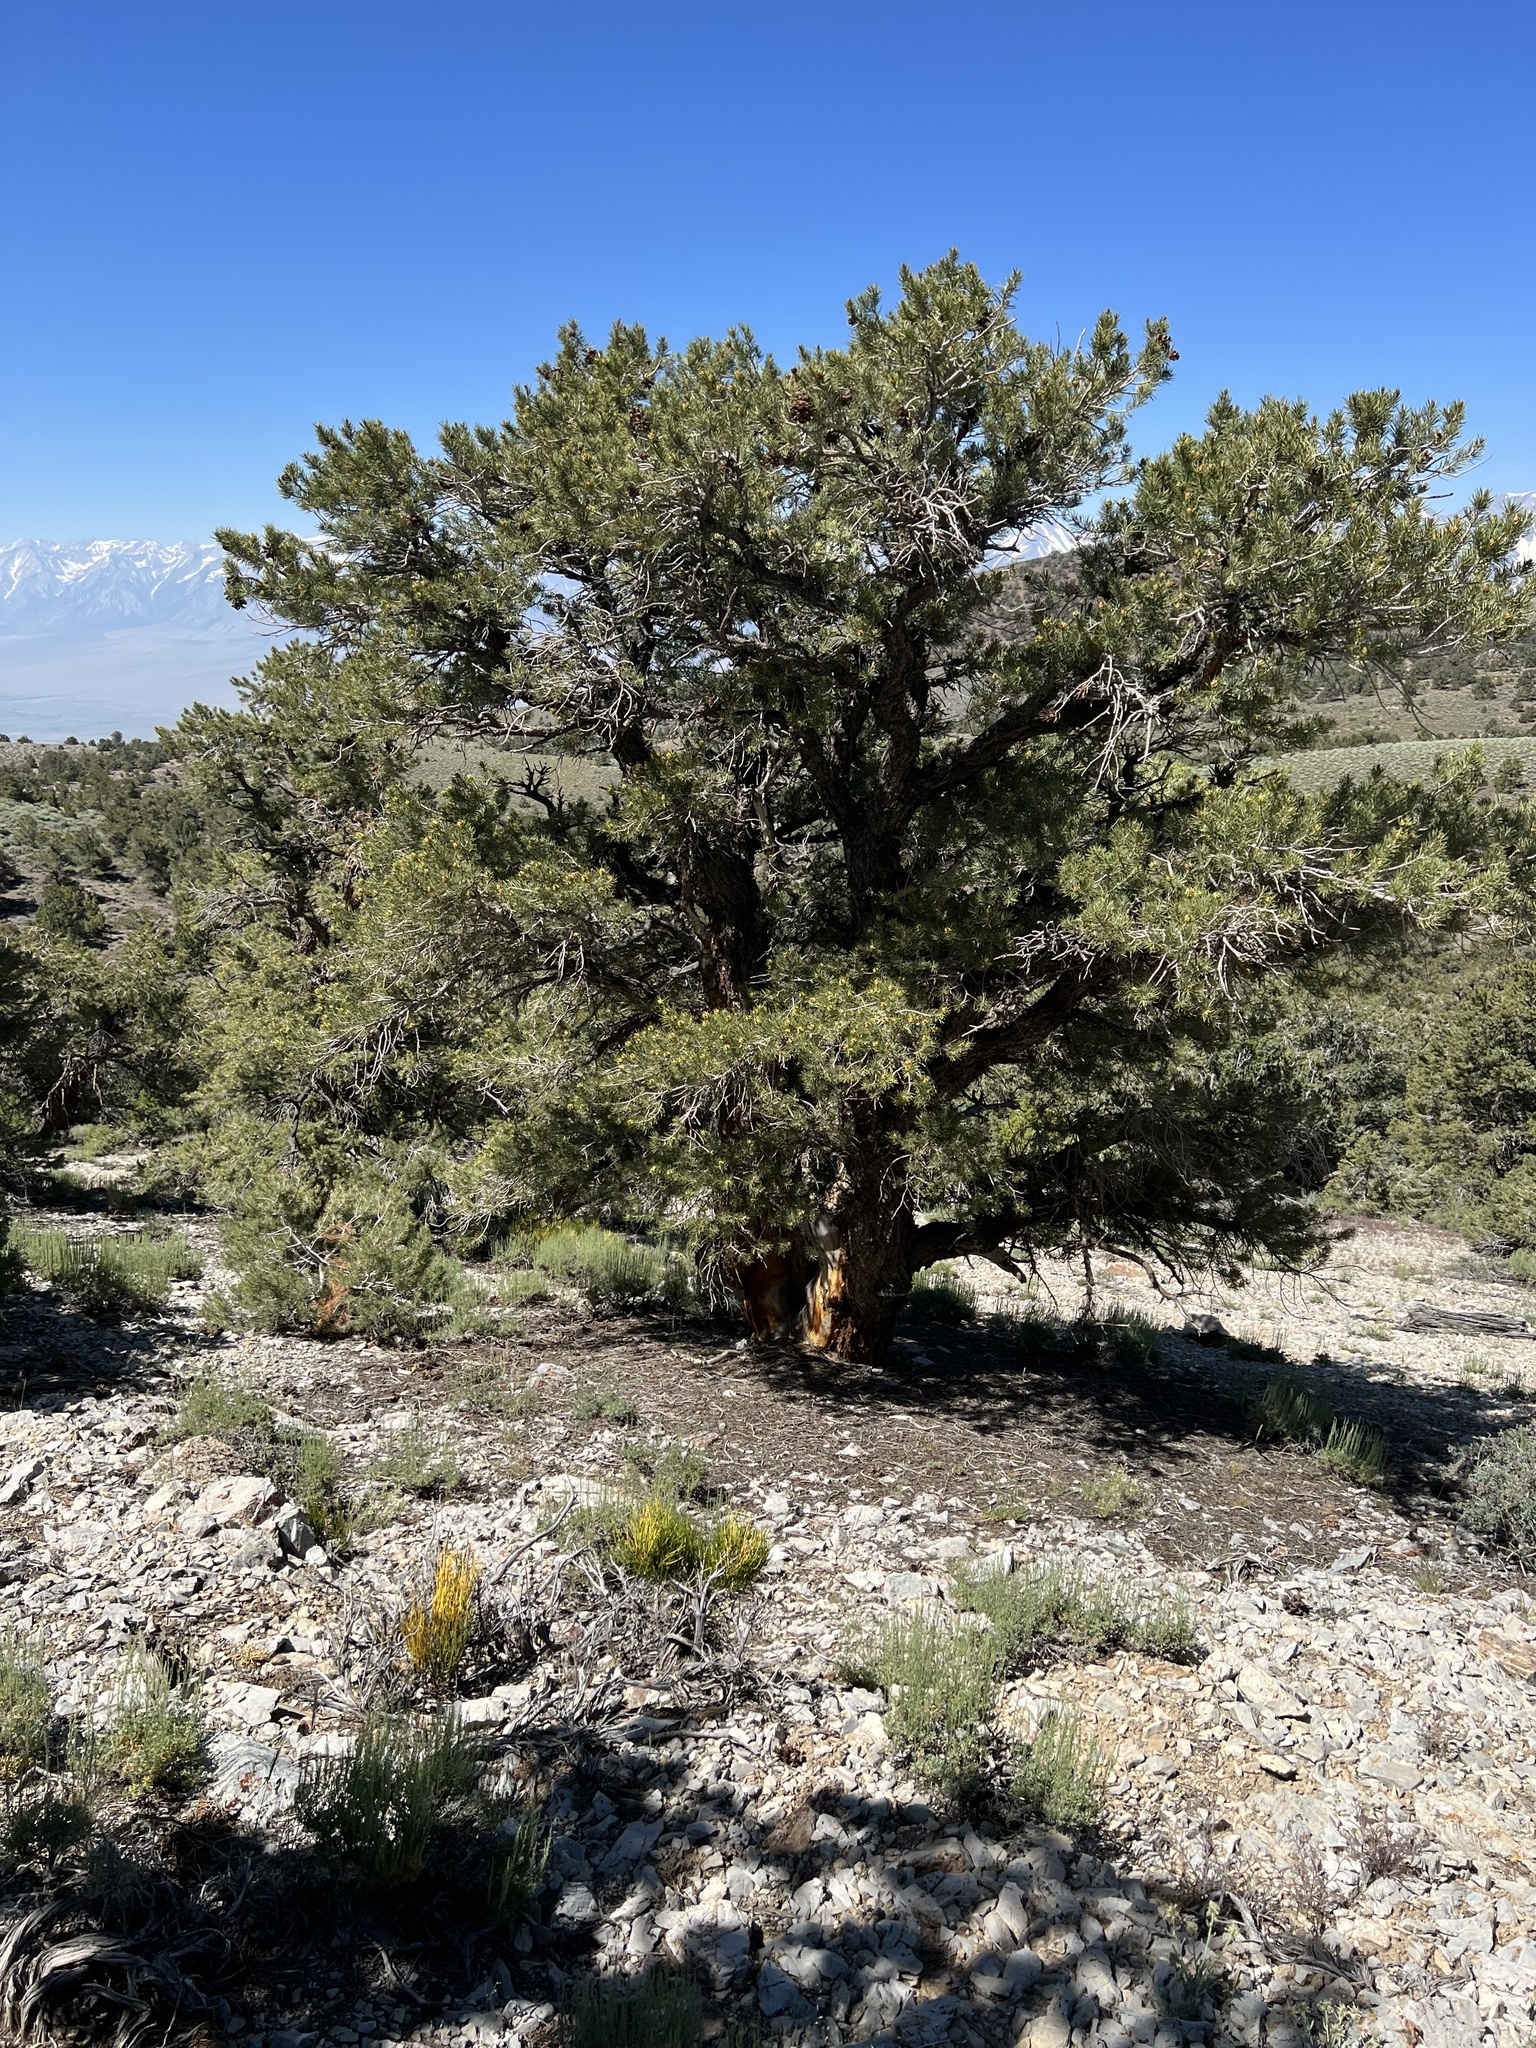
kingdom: Plantae
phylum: Tracheophyta
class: Pinopsida
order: Pinales
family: Pinaceae
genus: Pinus
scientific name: Pinus monophylla
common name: One-leaved nut pine
